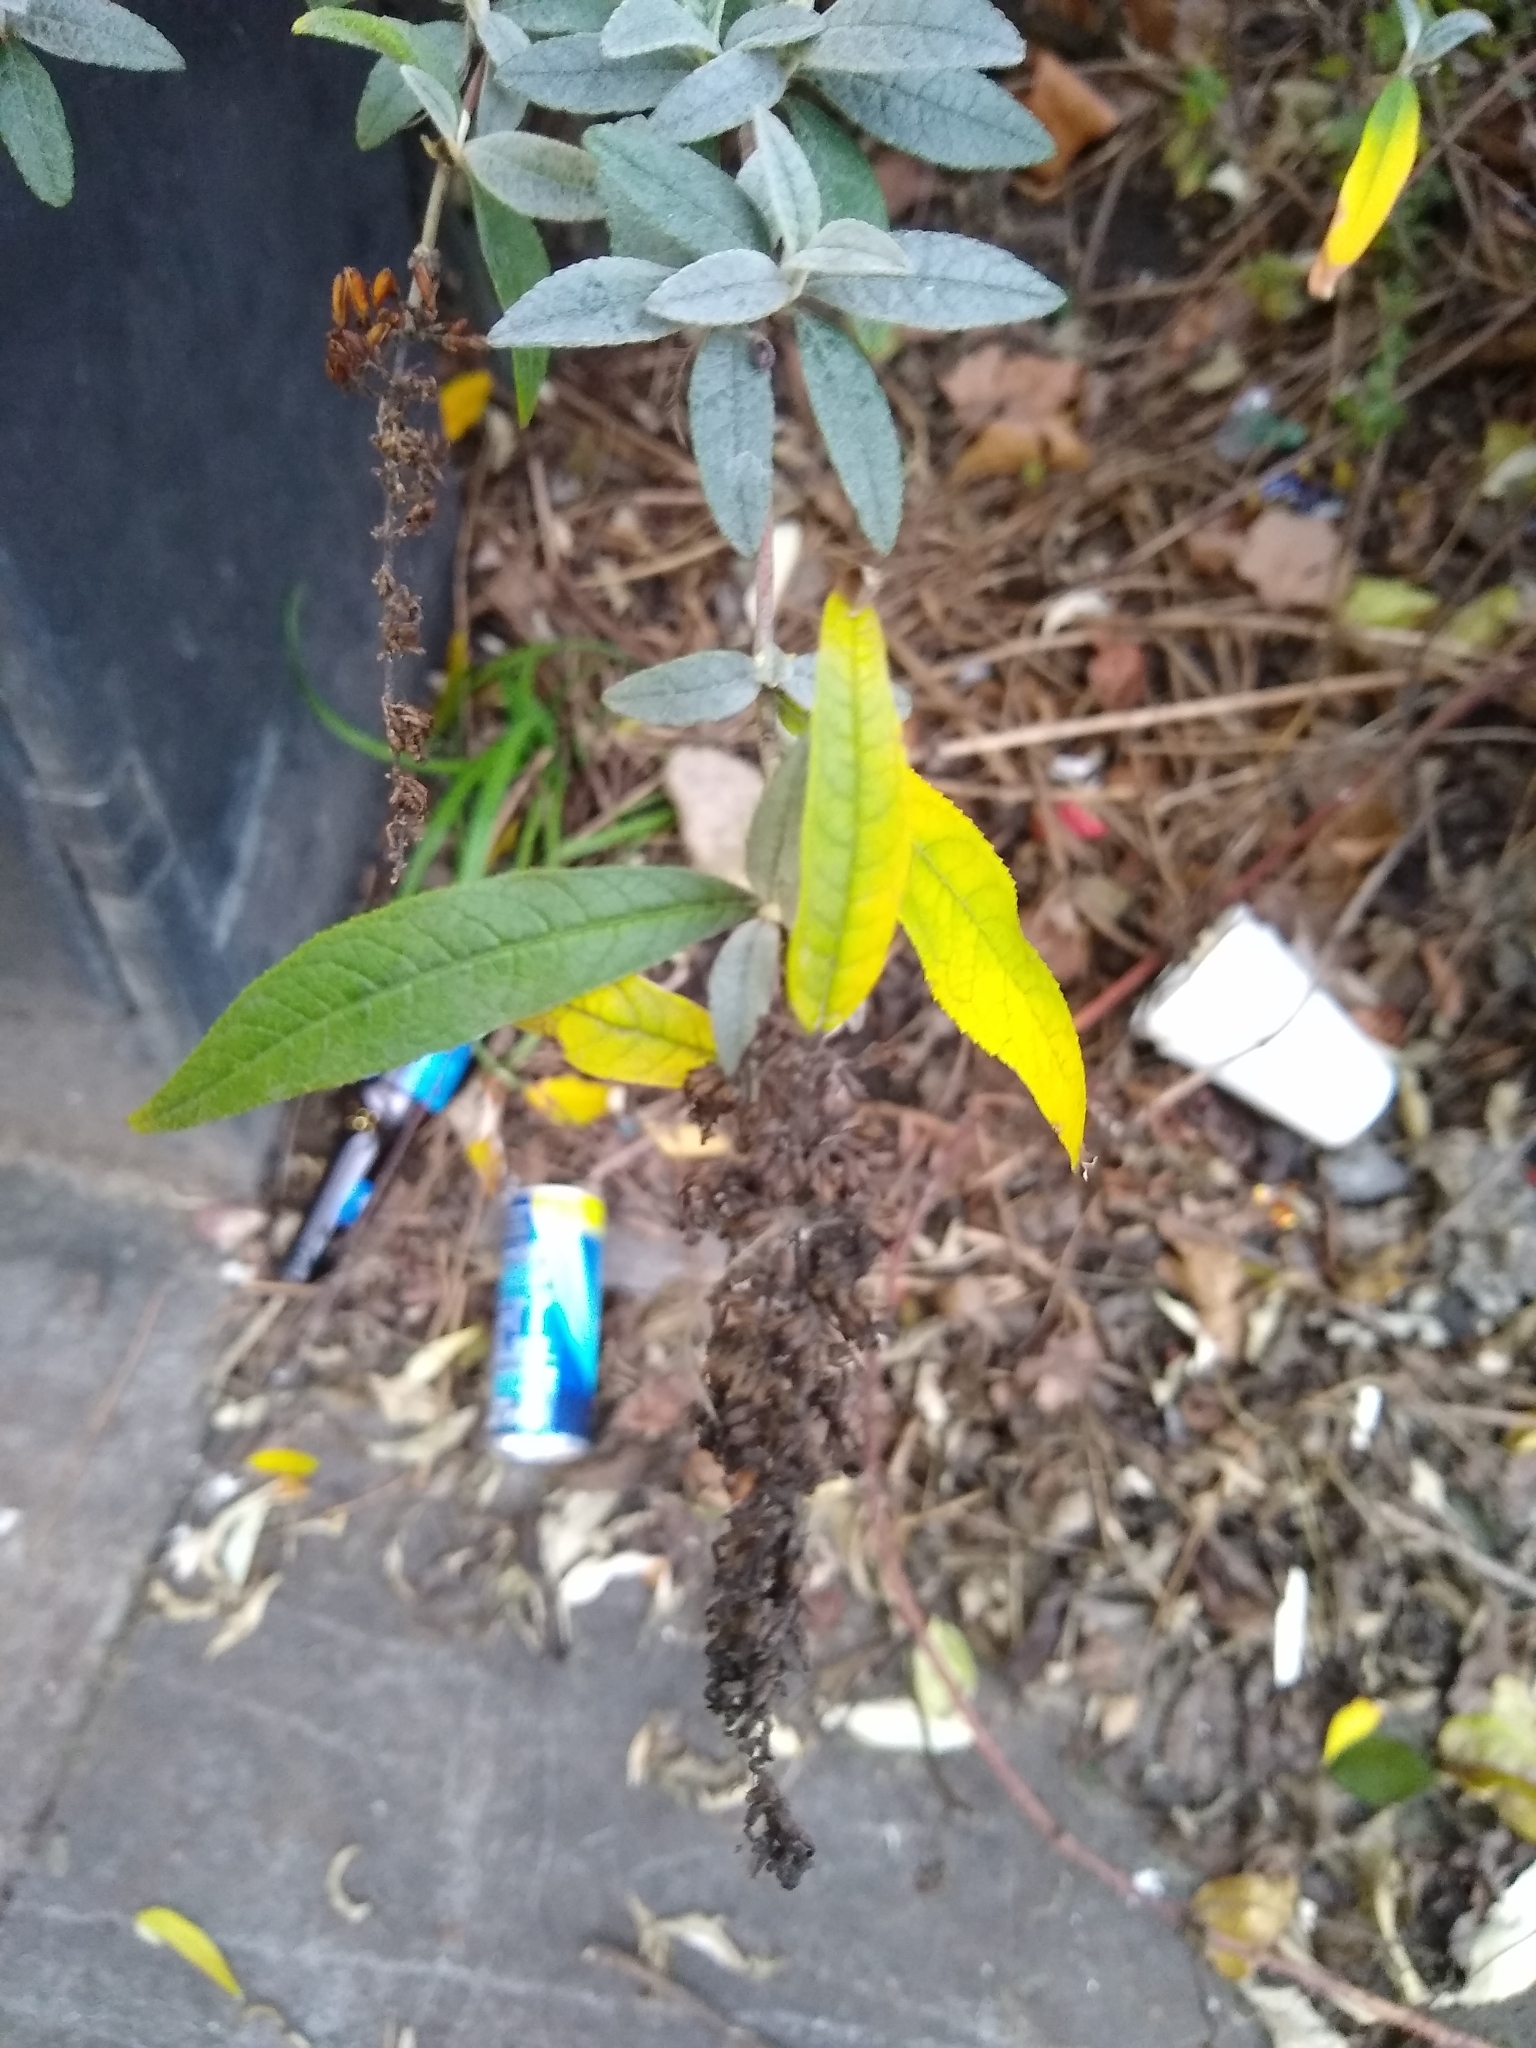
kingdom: Plantae
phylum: Tracheophyta
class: Magnoliopsida
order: Lamiales
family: Scrophulariaceae
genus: Buddleja
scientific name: Buddleja davidii
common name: Butterfly-bush
